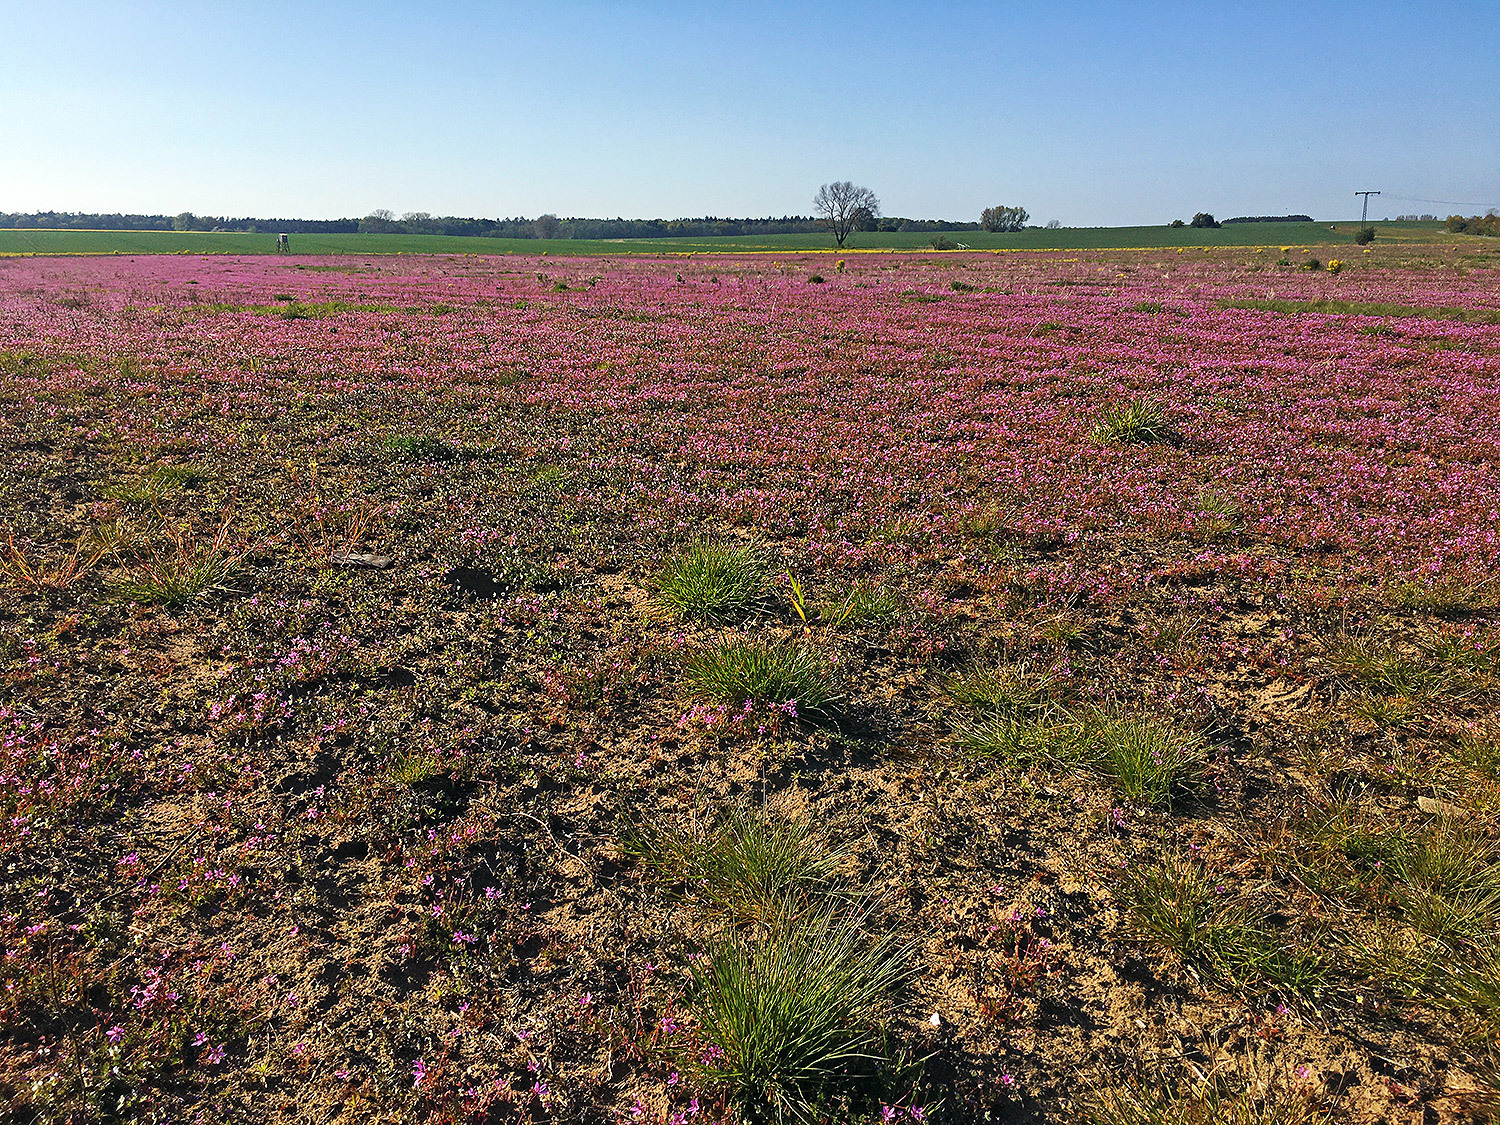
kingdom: Plantae
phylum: Tracheophyta
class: Magnoliopsida
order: Geraniales
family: Geraniaceae
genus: Erodium
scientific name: Erodium cicutarium
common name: Common stork's-bill
